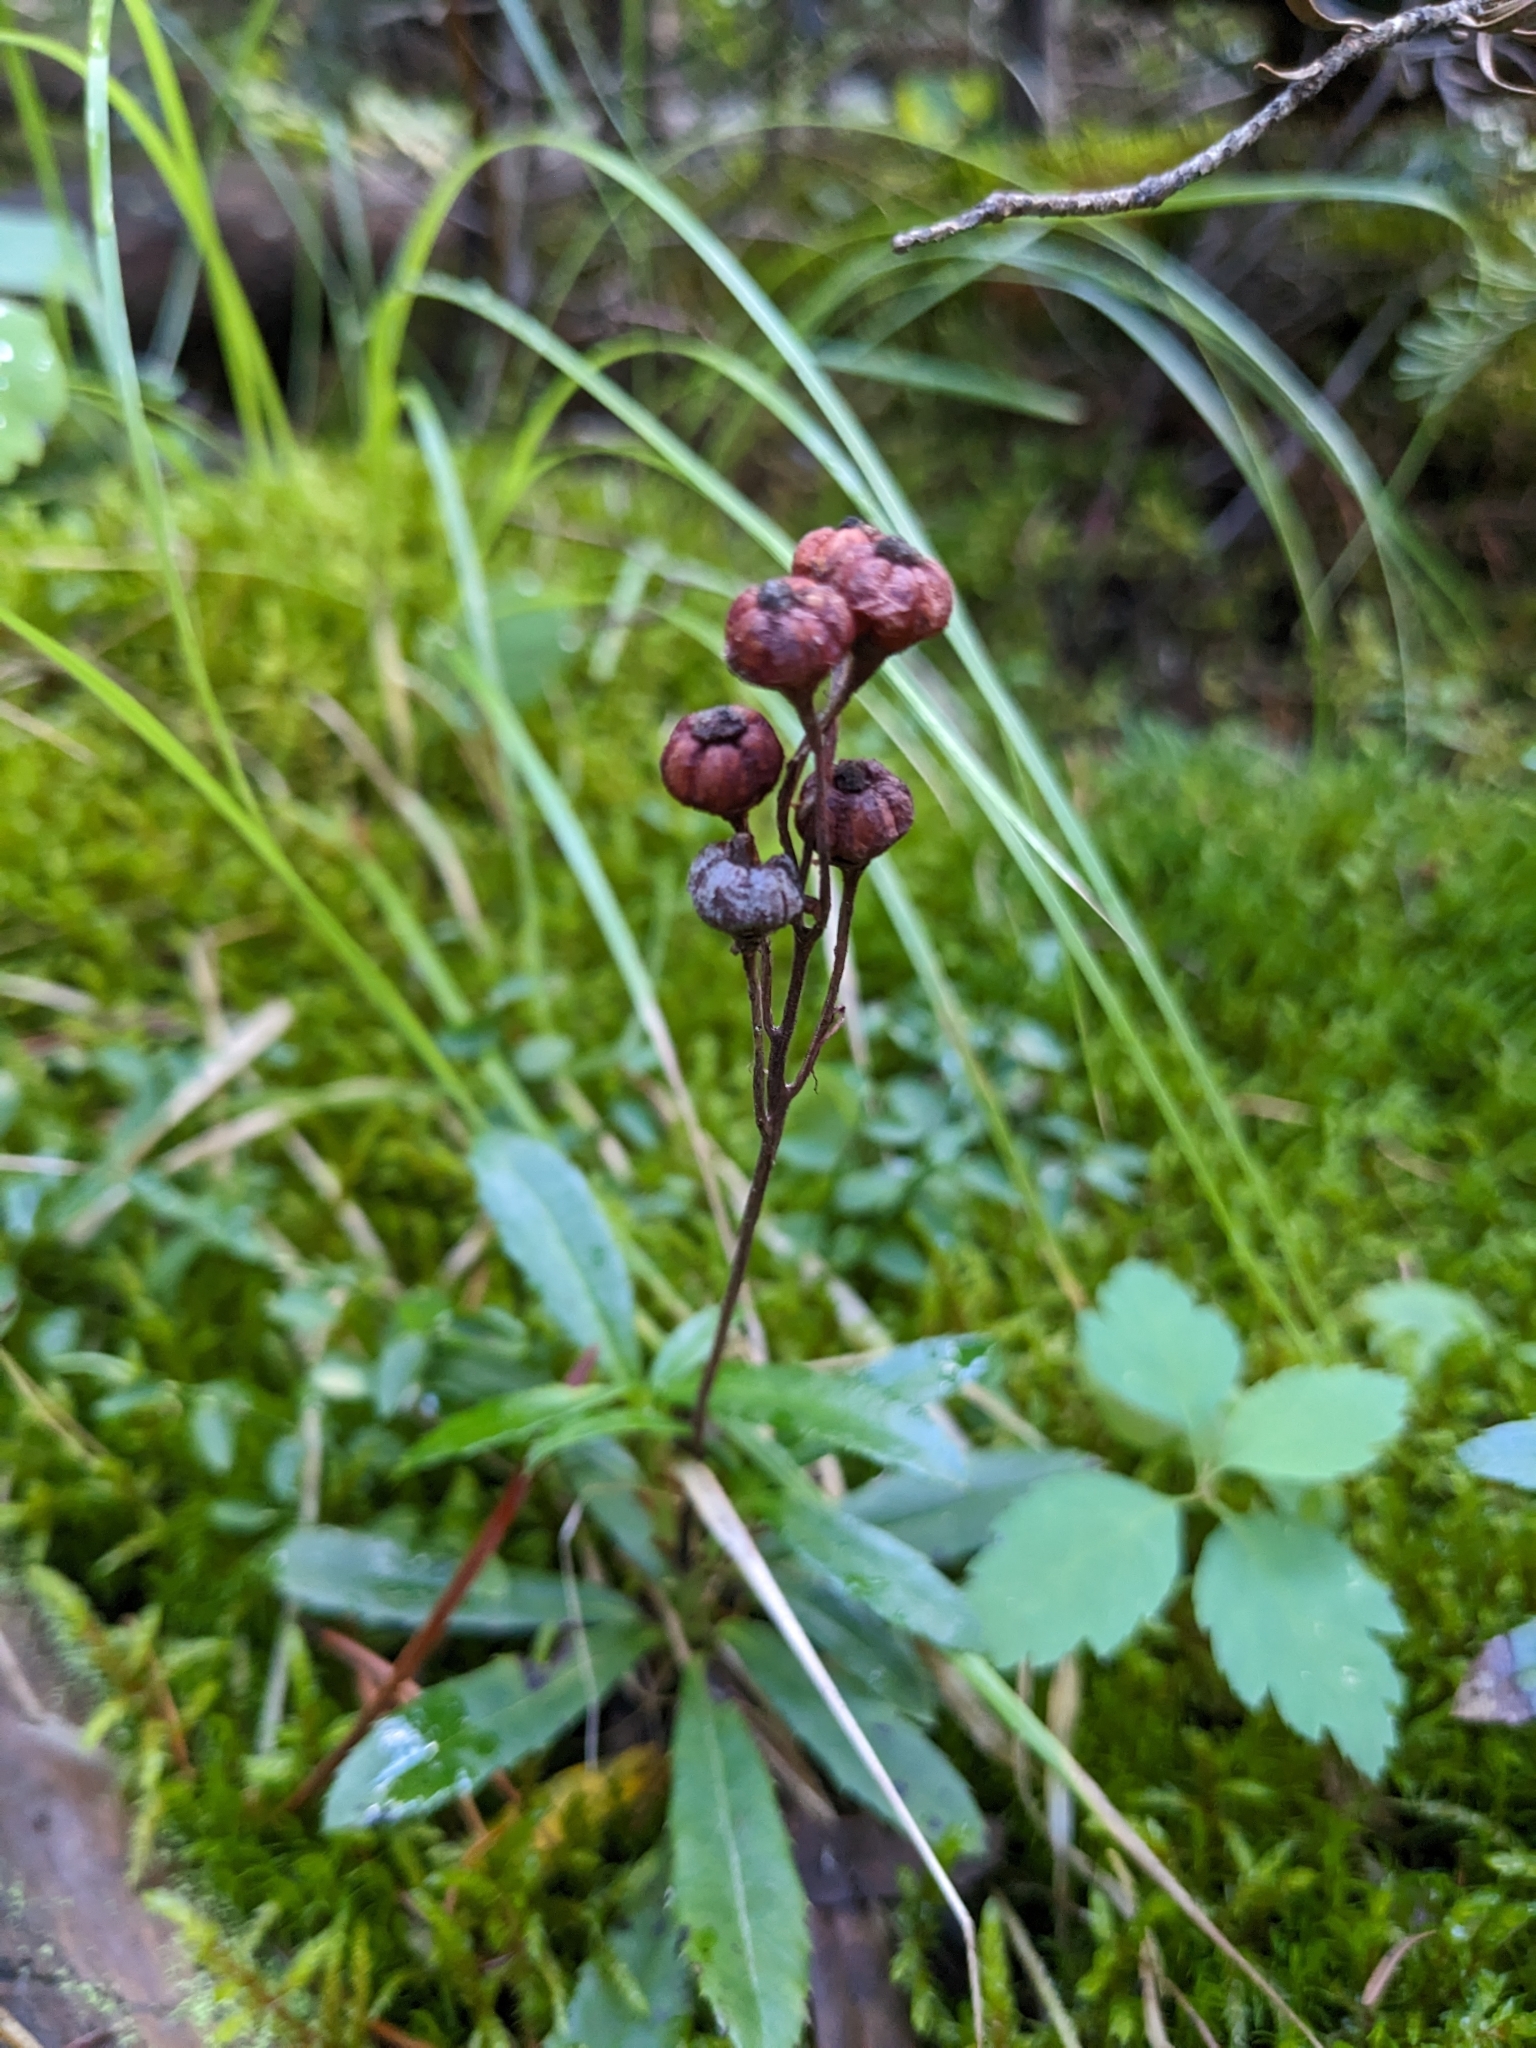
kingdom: Plantae
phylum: Tracheophyta
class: Magnoliopsida
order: Ericales
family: Ericaceae
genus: Chimaphila
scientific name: Chimaphila umbellata
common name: Pipsissewa
